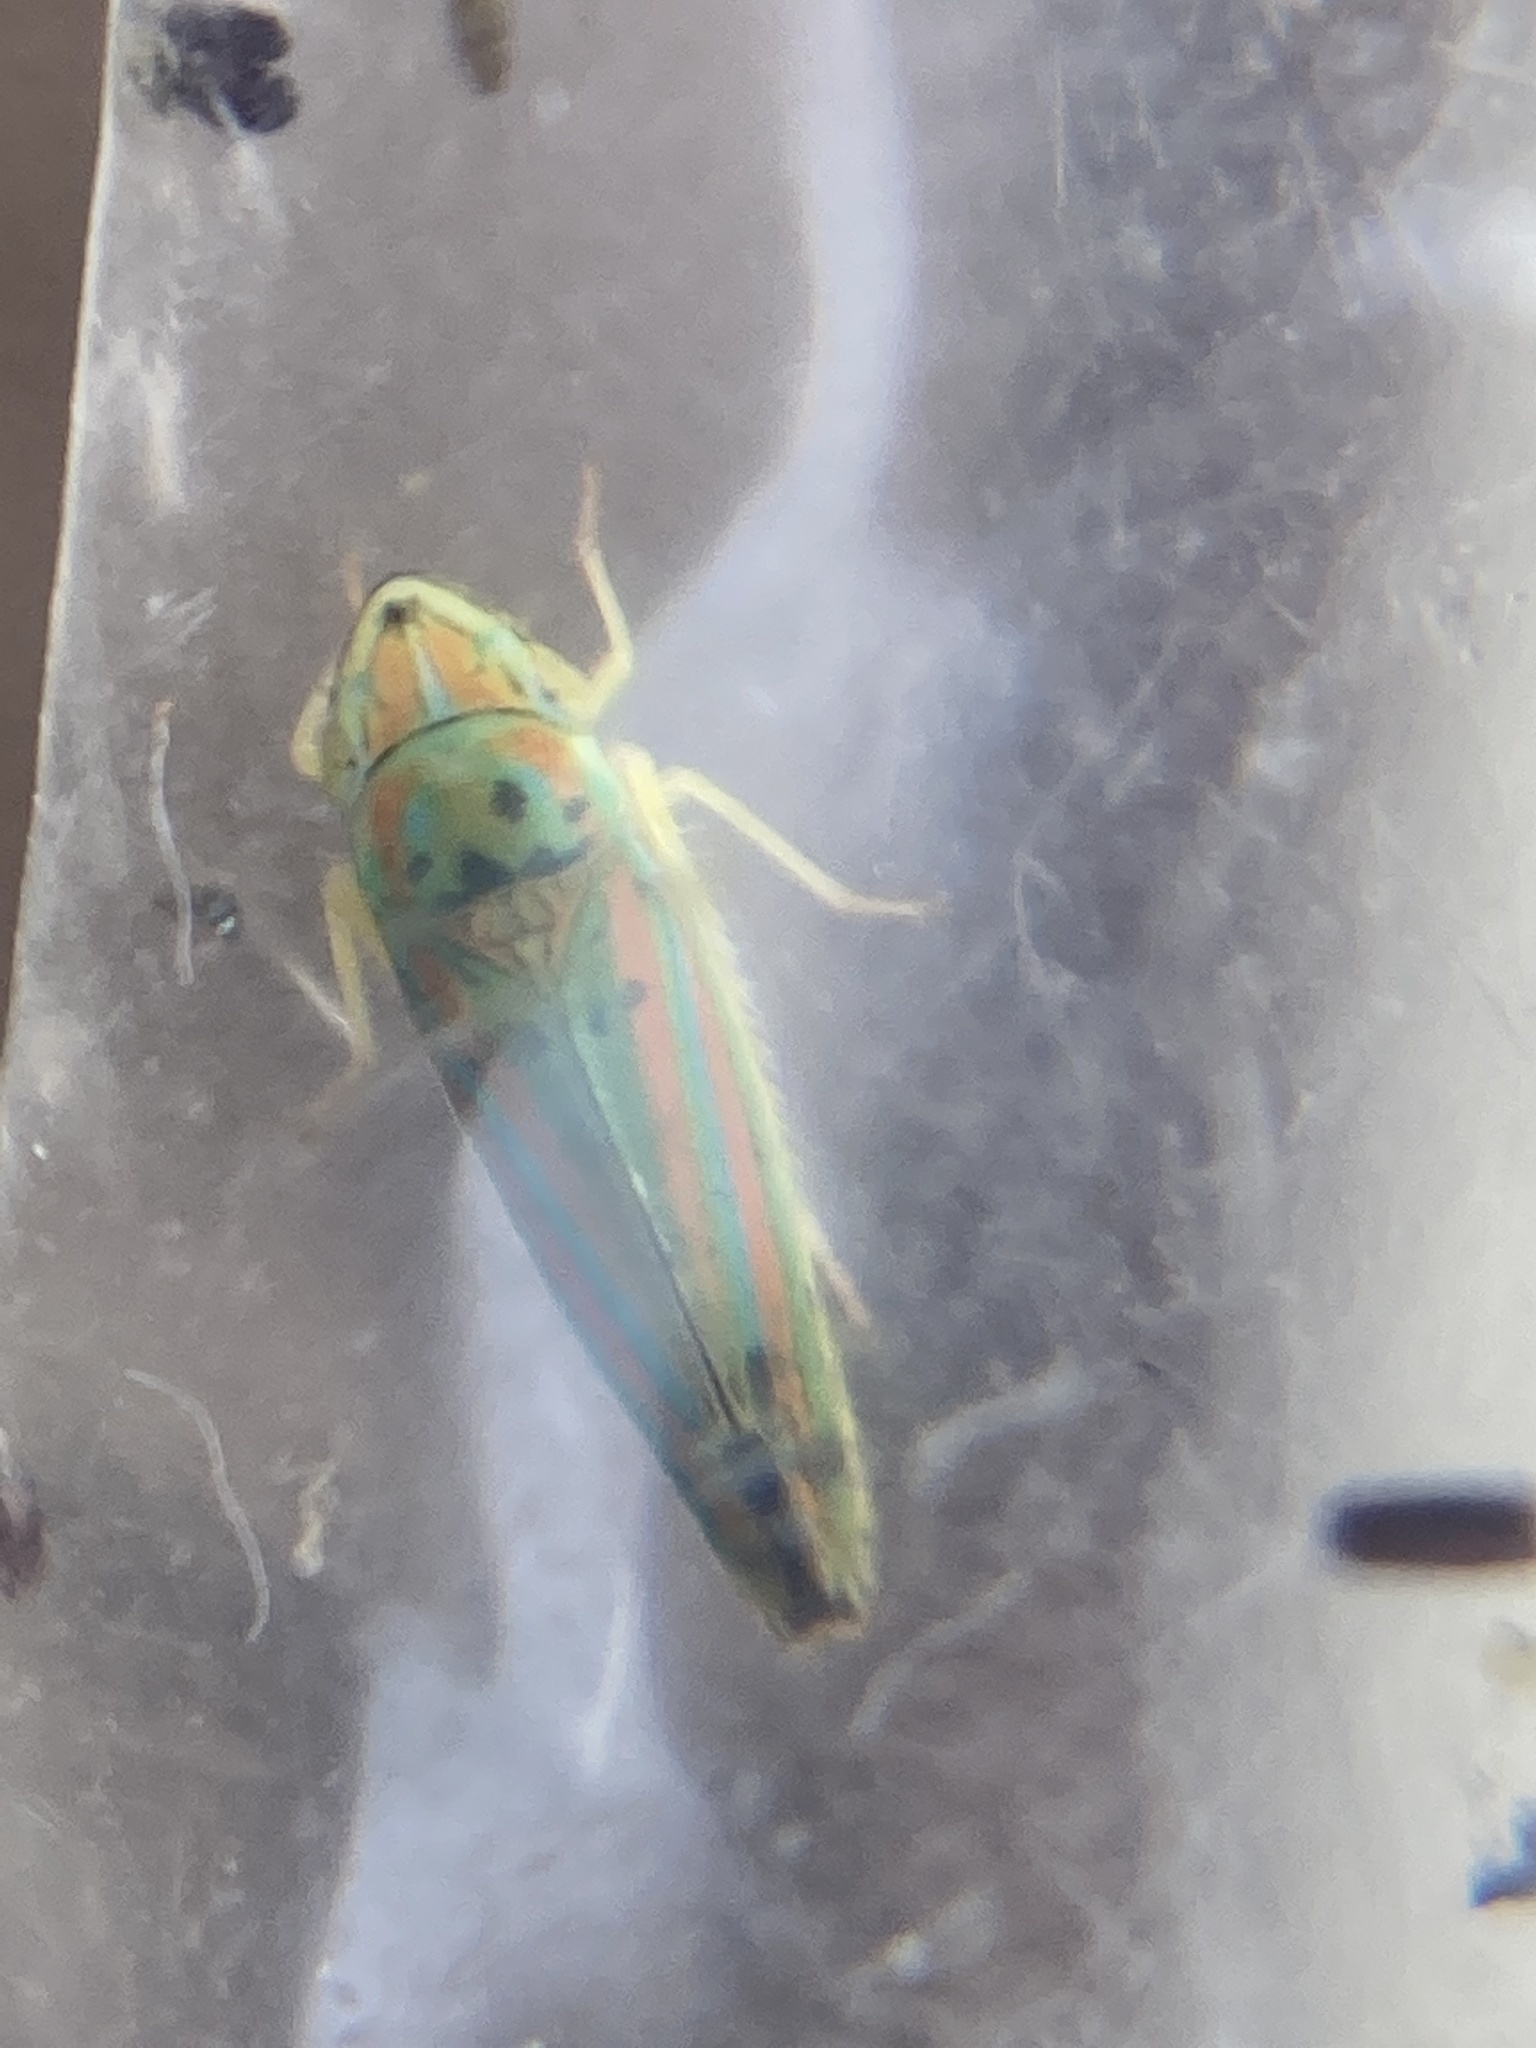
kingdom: Animalia
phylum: Arthropoda
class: Insecta
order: Hemiptera
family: Cicadellidae
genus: Graphocephala
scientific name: Graphocephala versuta
